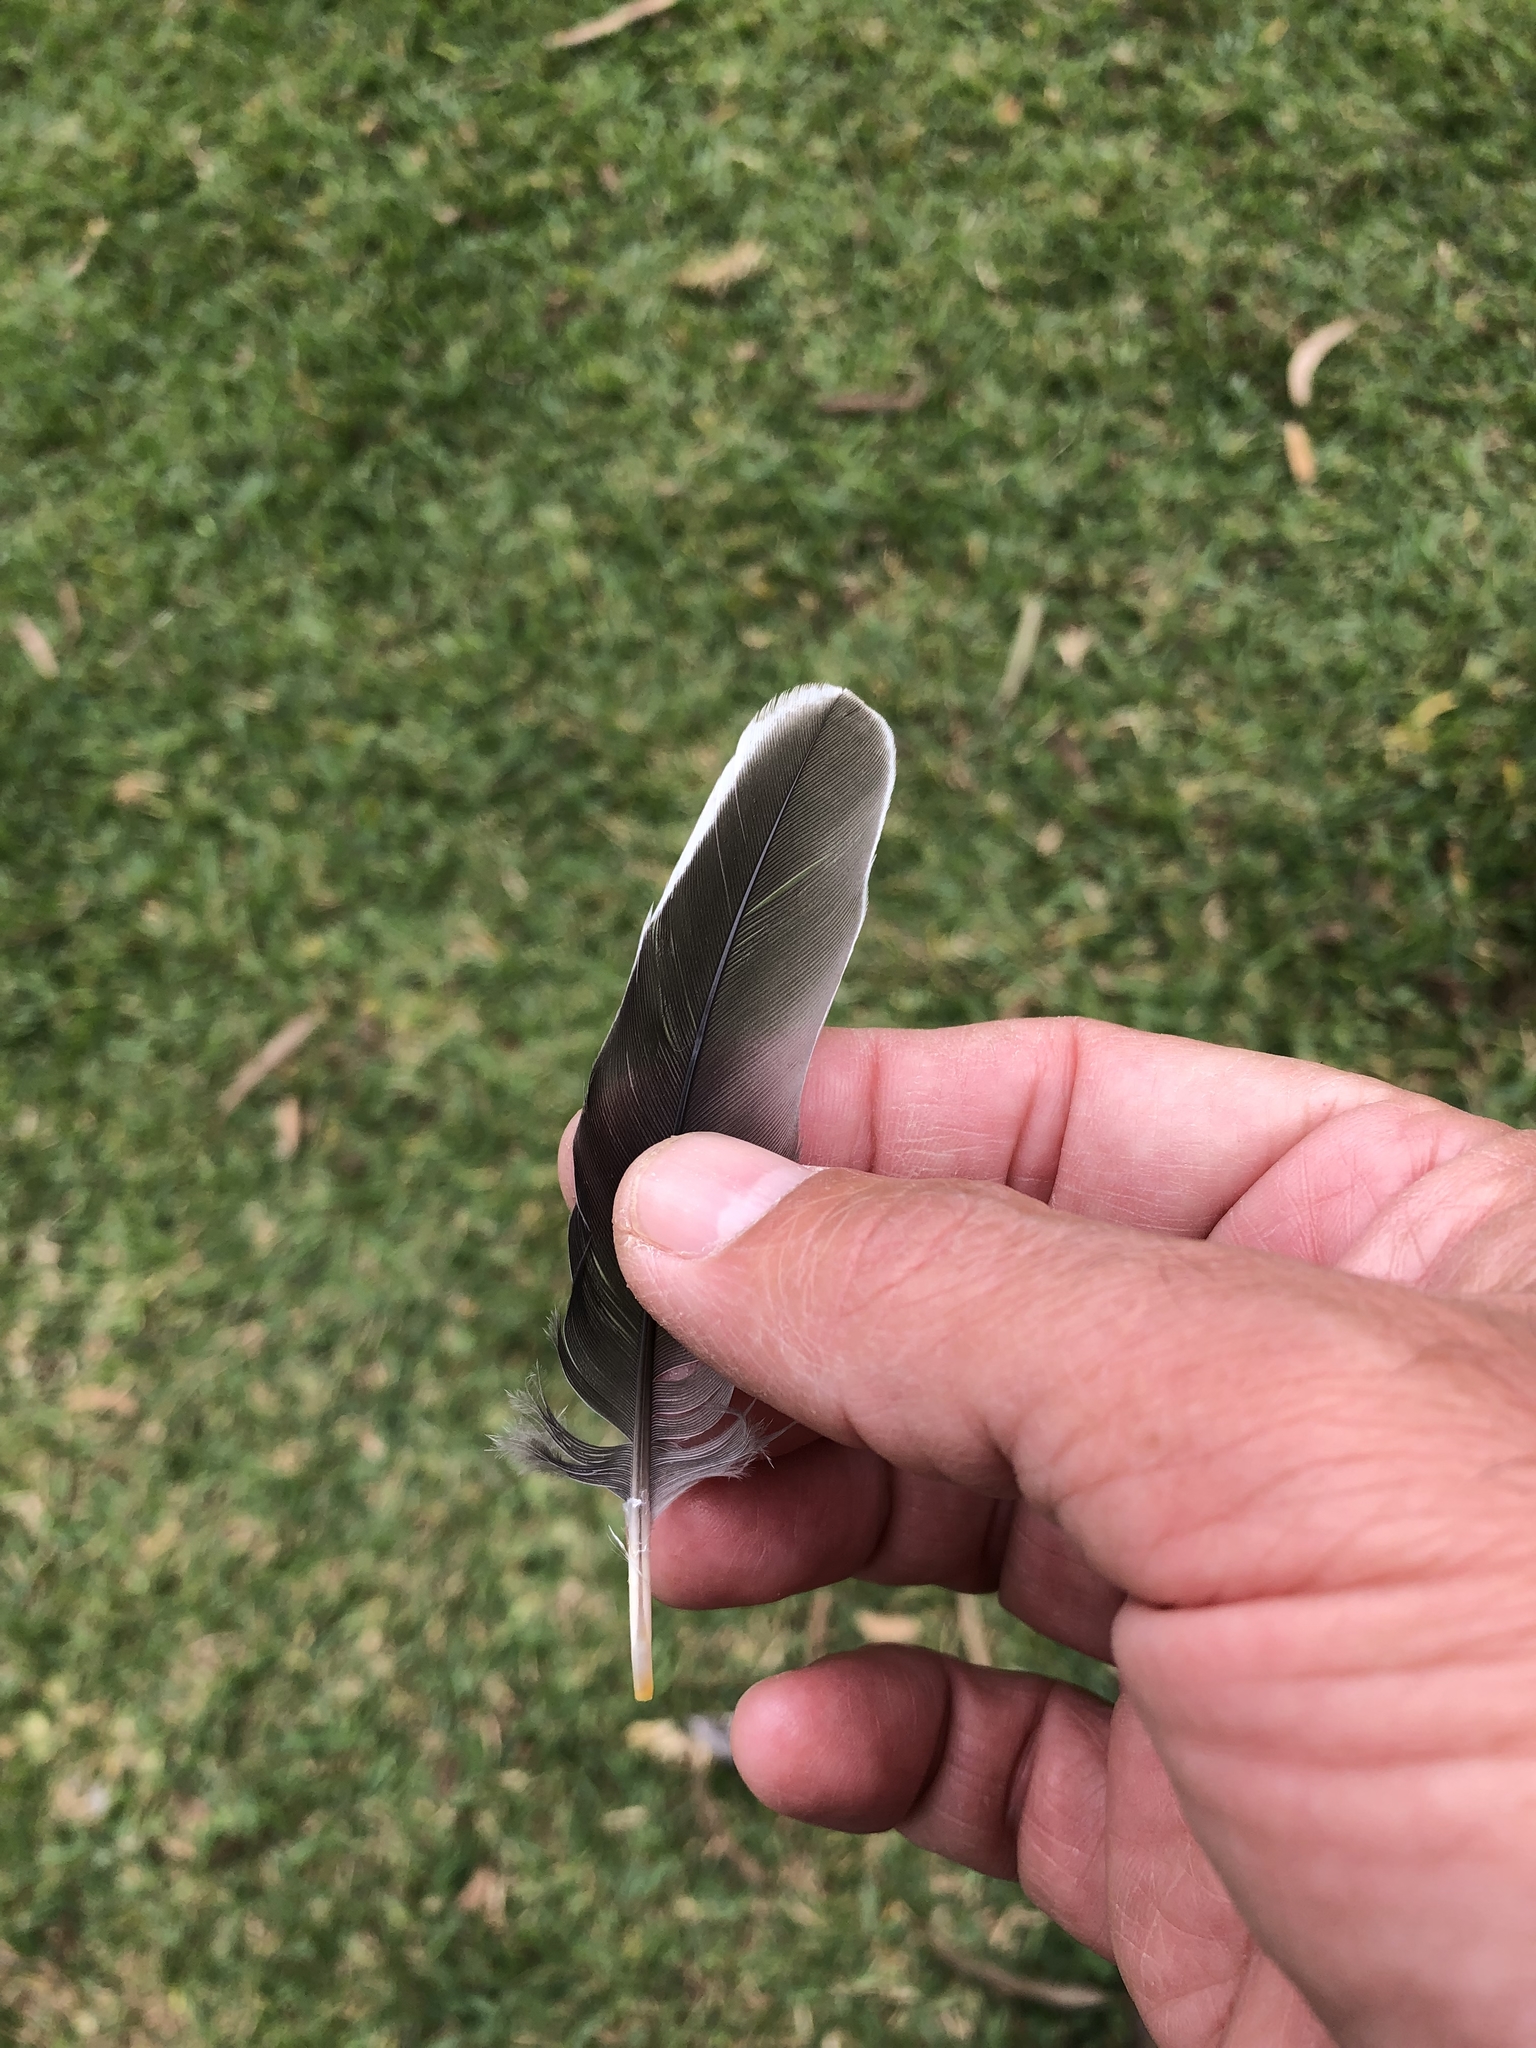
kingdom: Animalia
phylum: Chordata
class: Aves
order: Columbiformes
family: Columbidae
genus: Zenaida
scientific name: Zenaida meloda
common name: West peruvian dove
